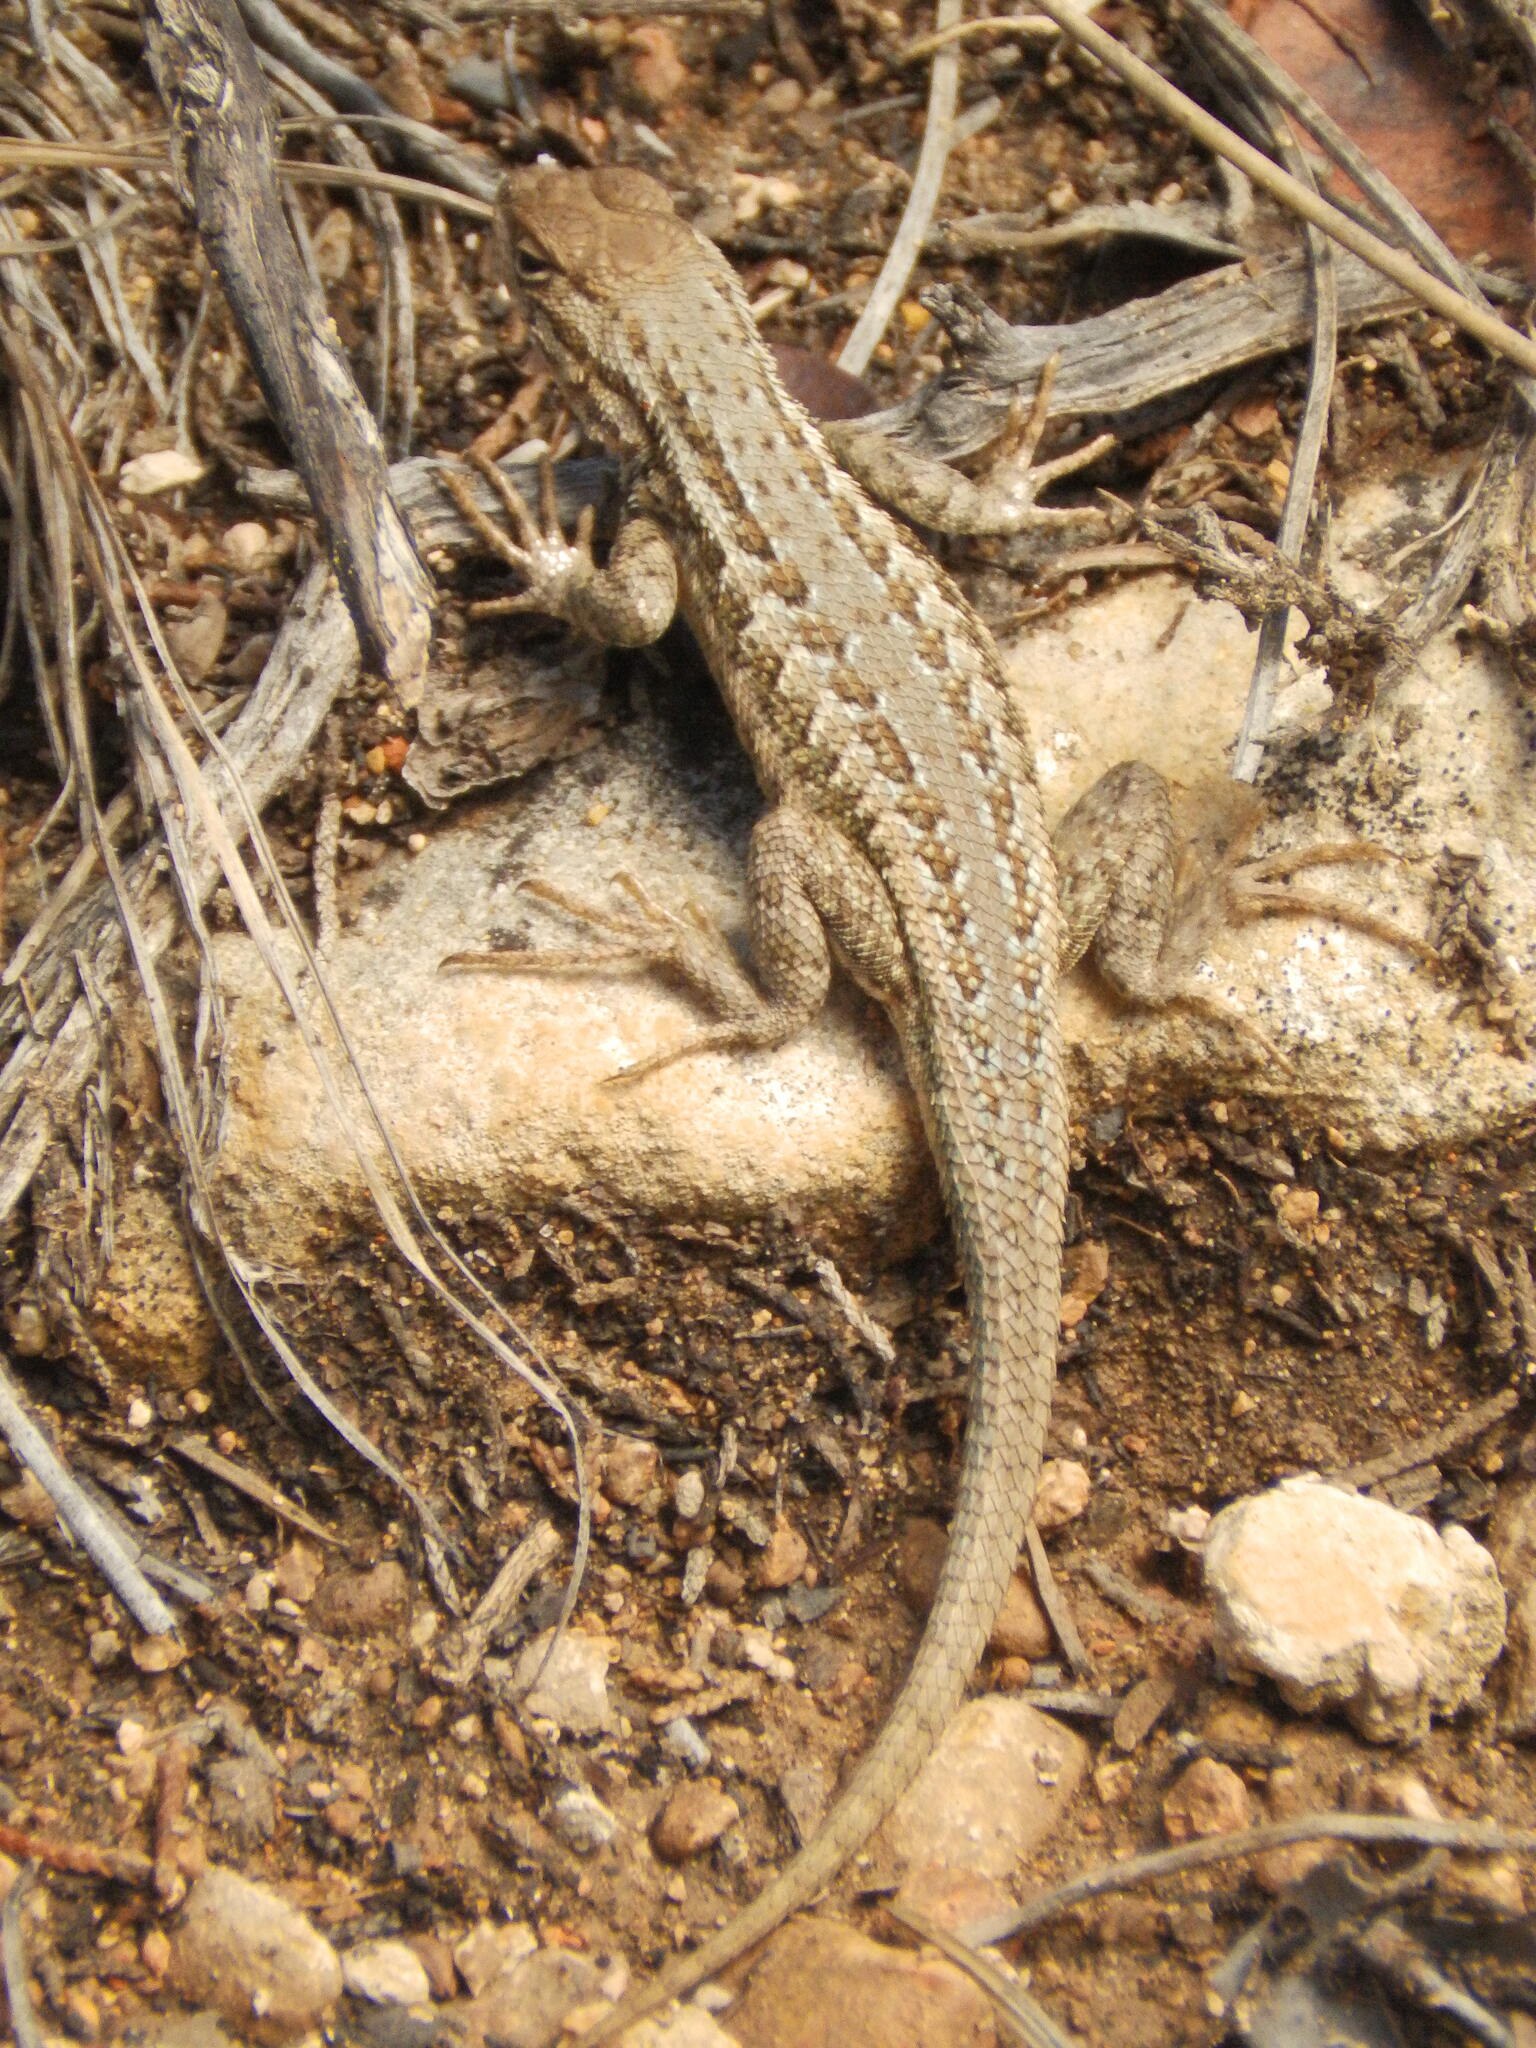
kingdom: Animalia
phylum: Chordata
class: Squamata
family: Phrynosomatidae
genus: Sceloporus
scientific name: Sceloporus graciosus
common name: Sagebrush lizard
